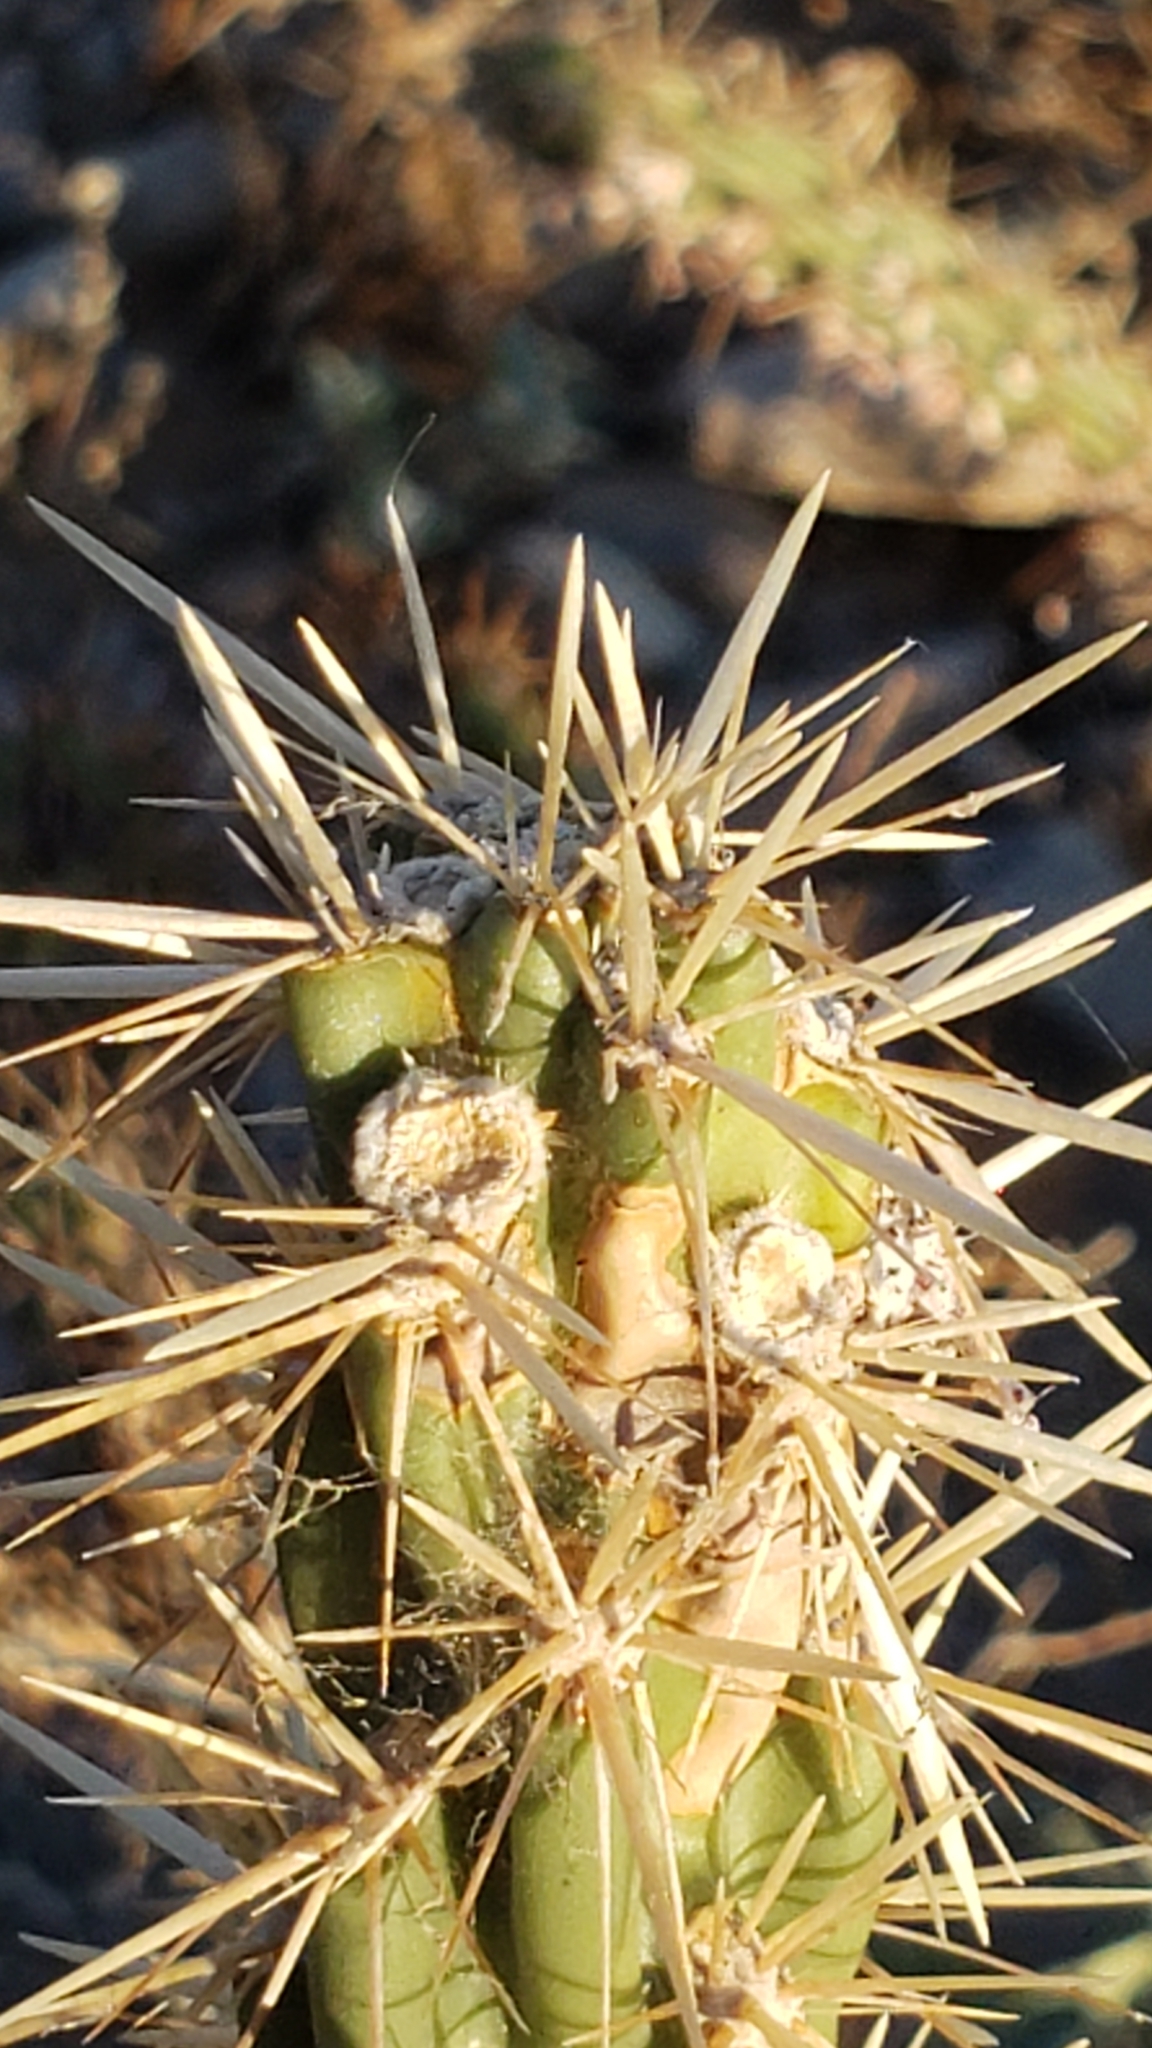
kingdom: Plantae
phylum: Tracheophyta
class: Magnoliopsida
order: Caryophyllales
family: Cactaceae
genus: Cylindropuntia
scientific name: Cylindropuntia acanthocarpa
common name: Buckhorn cholla
